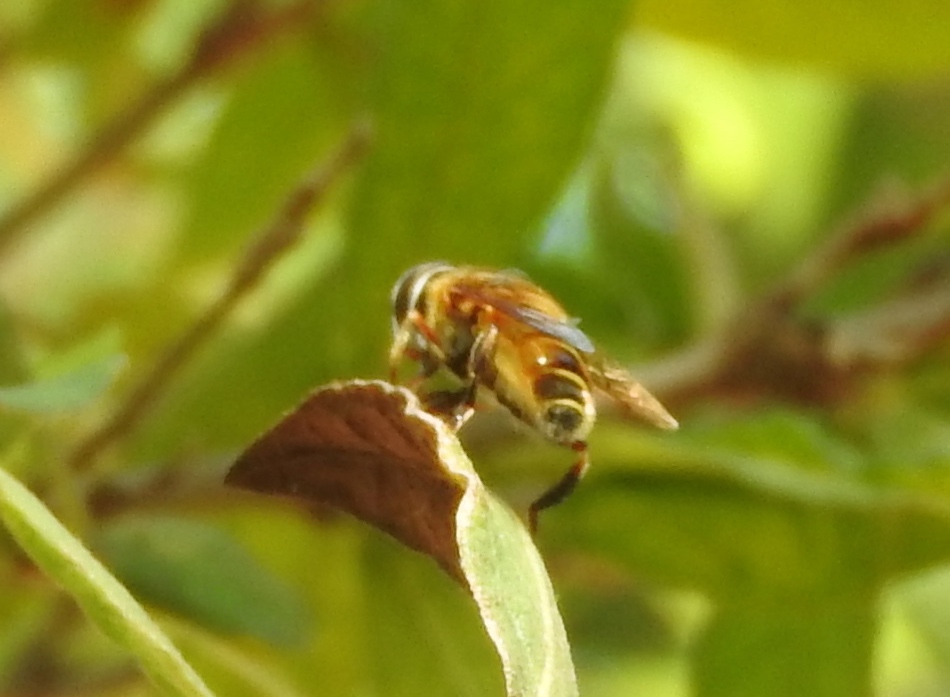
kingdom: Animalia
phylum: Arthropoda
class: Insecta
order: Diptera
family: Syrphidae
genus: Palpada
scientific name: Palpada
